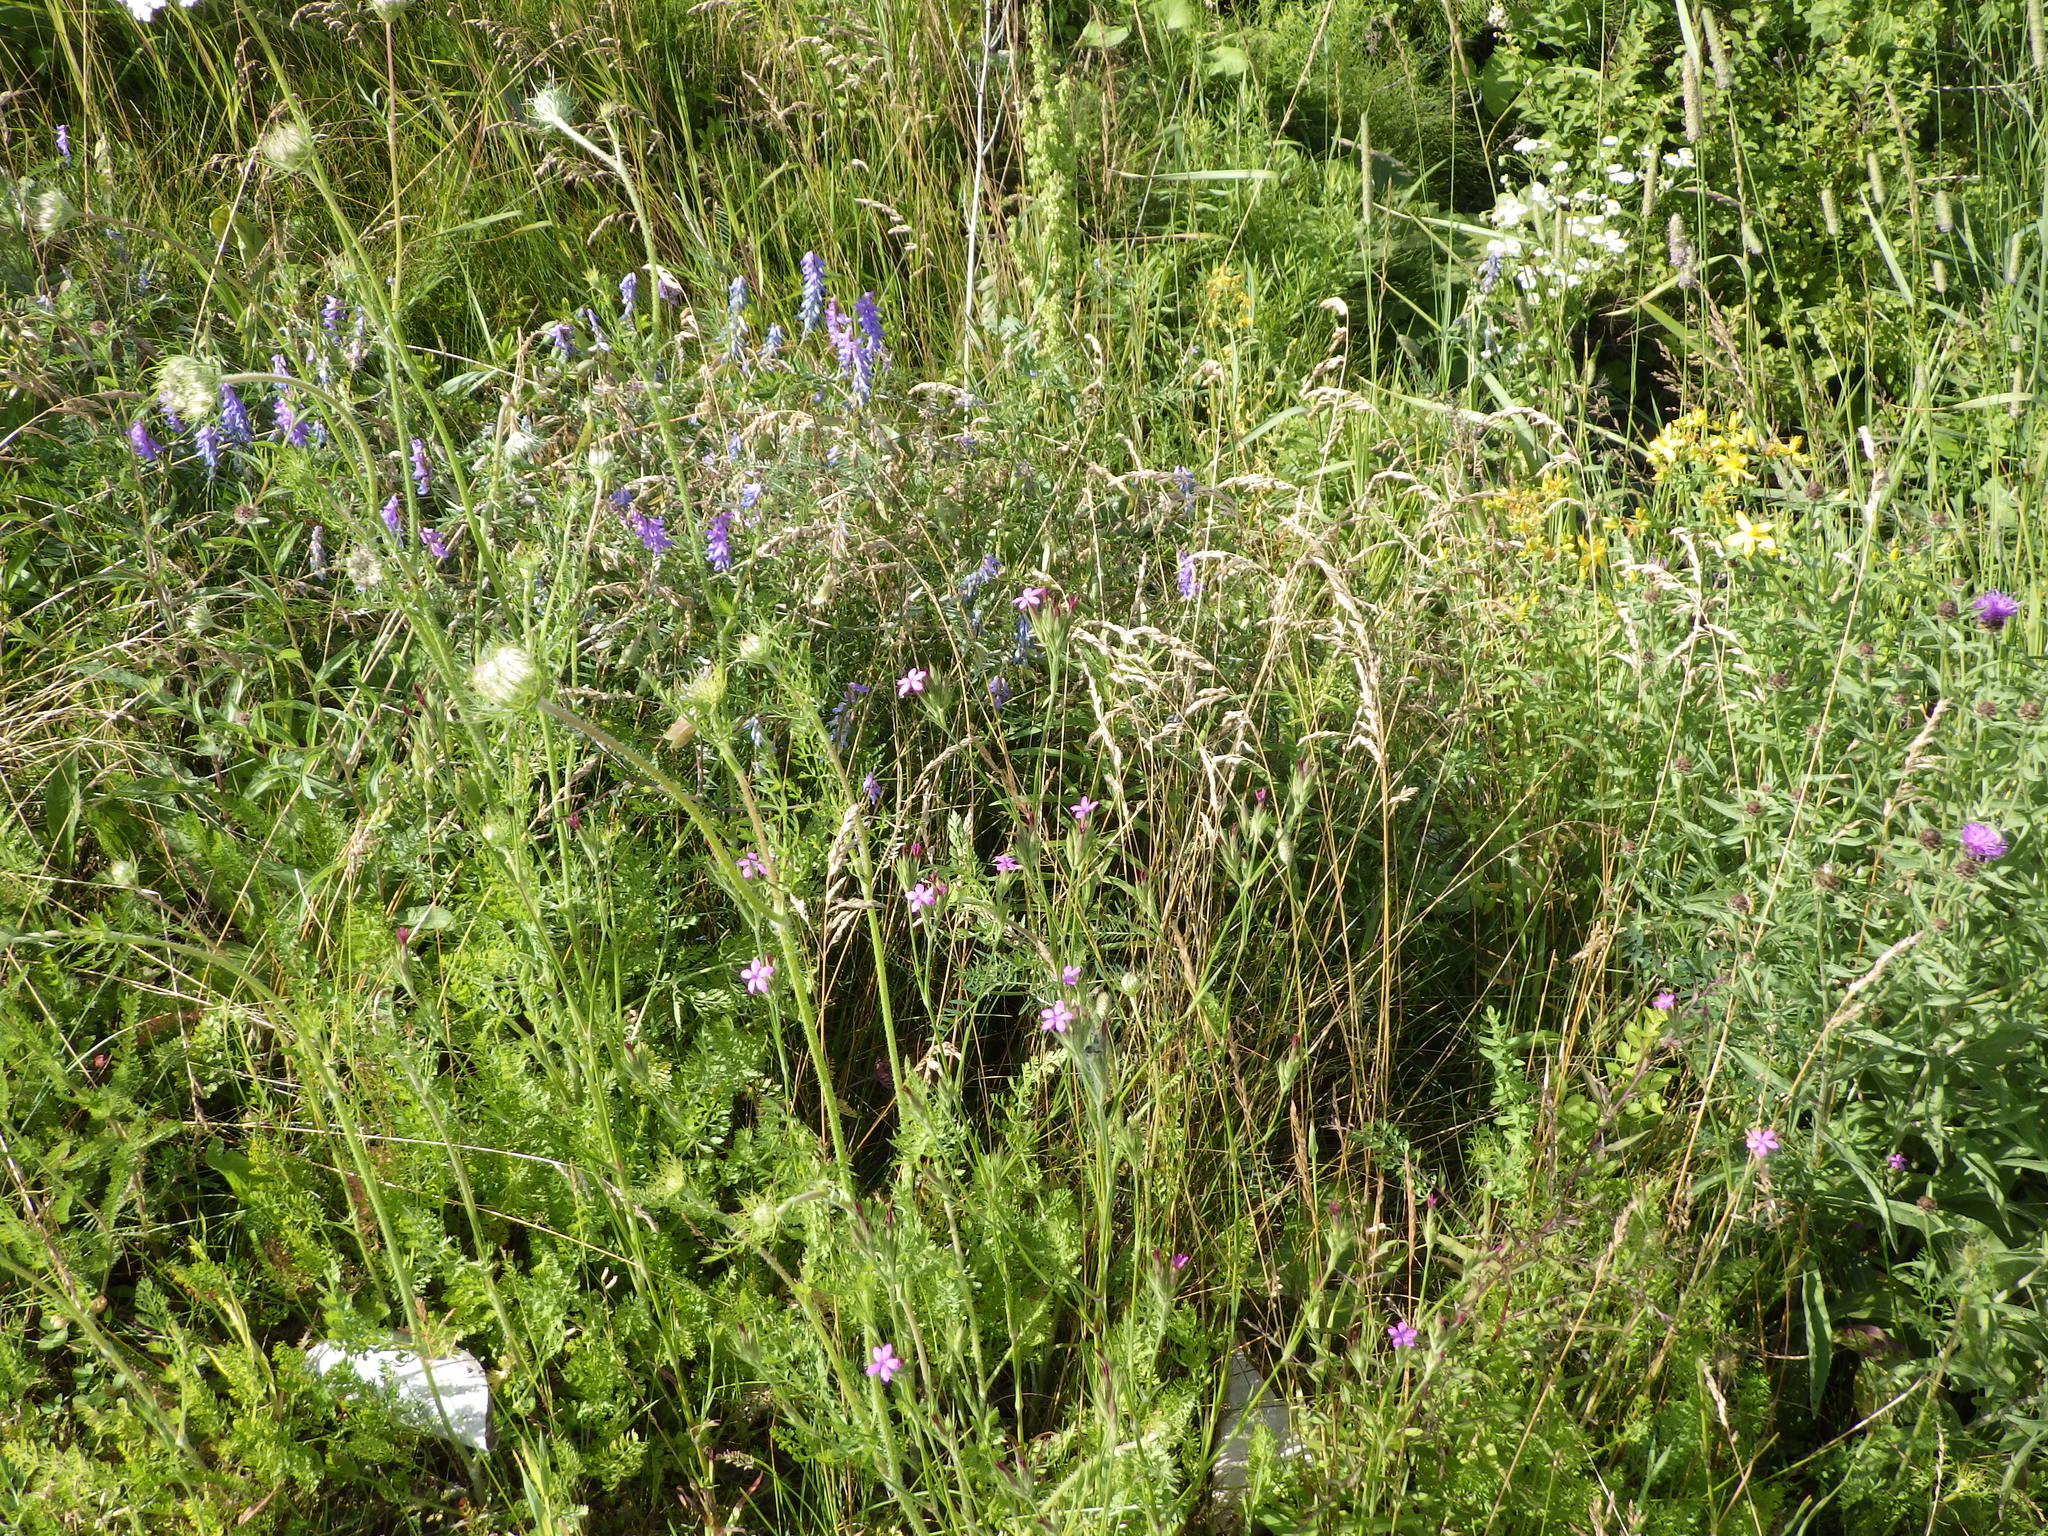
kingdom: Plantae
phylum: Tracheophyta
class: Magnoliopsida
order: Caryophyllales
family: Caryophyllaceae
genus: Dianthus
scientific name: Dianthus armeria
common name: Deptford pink
